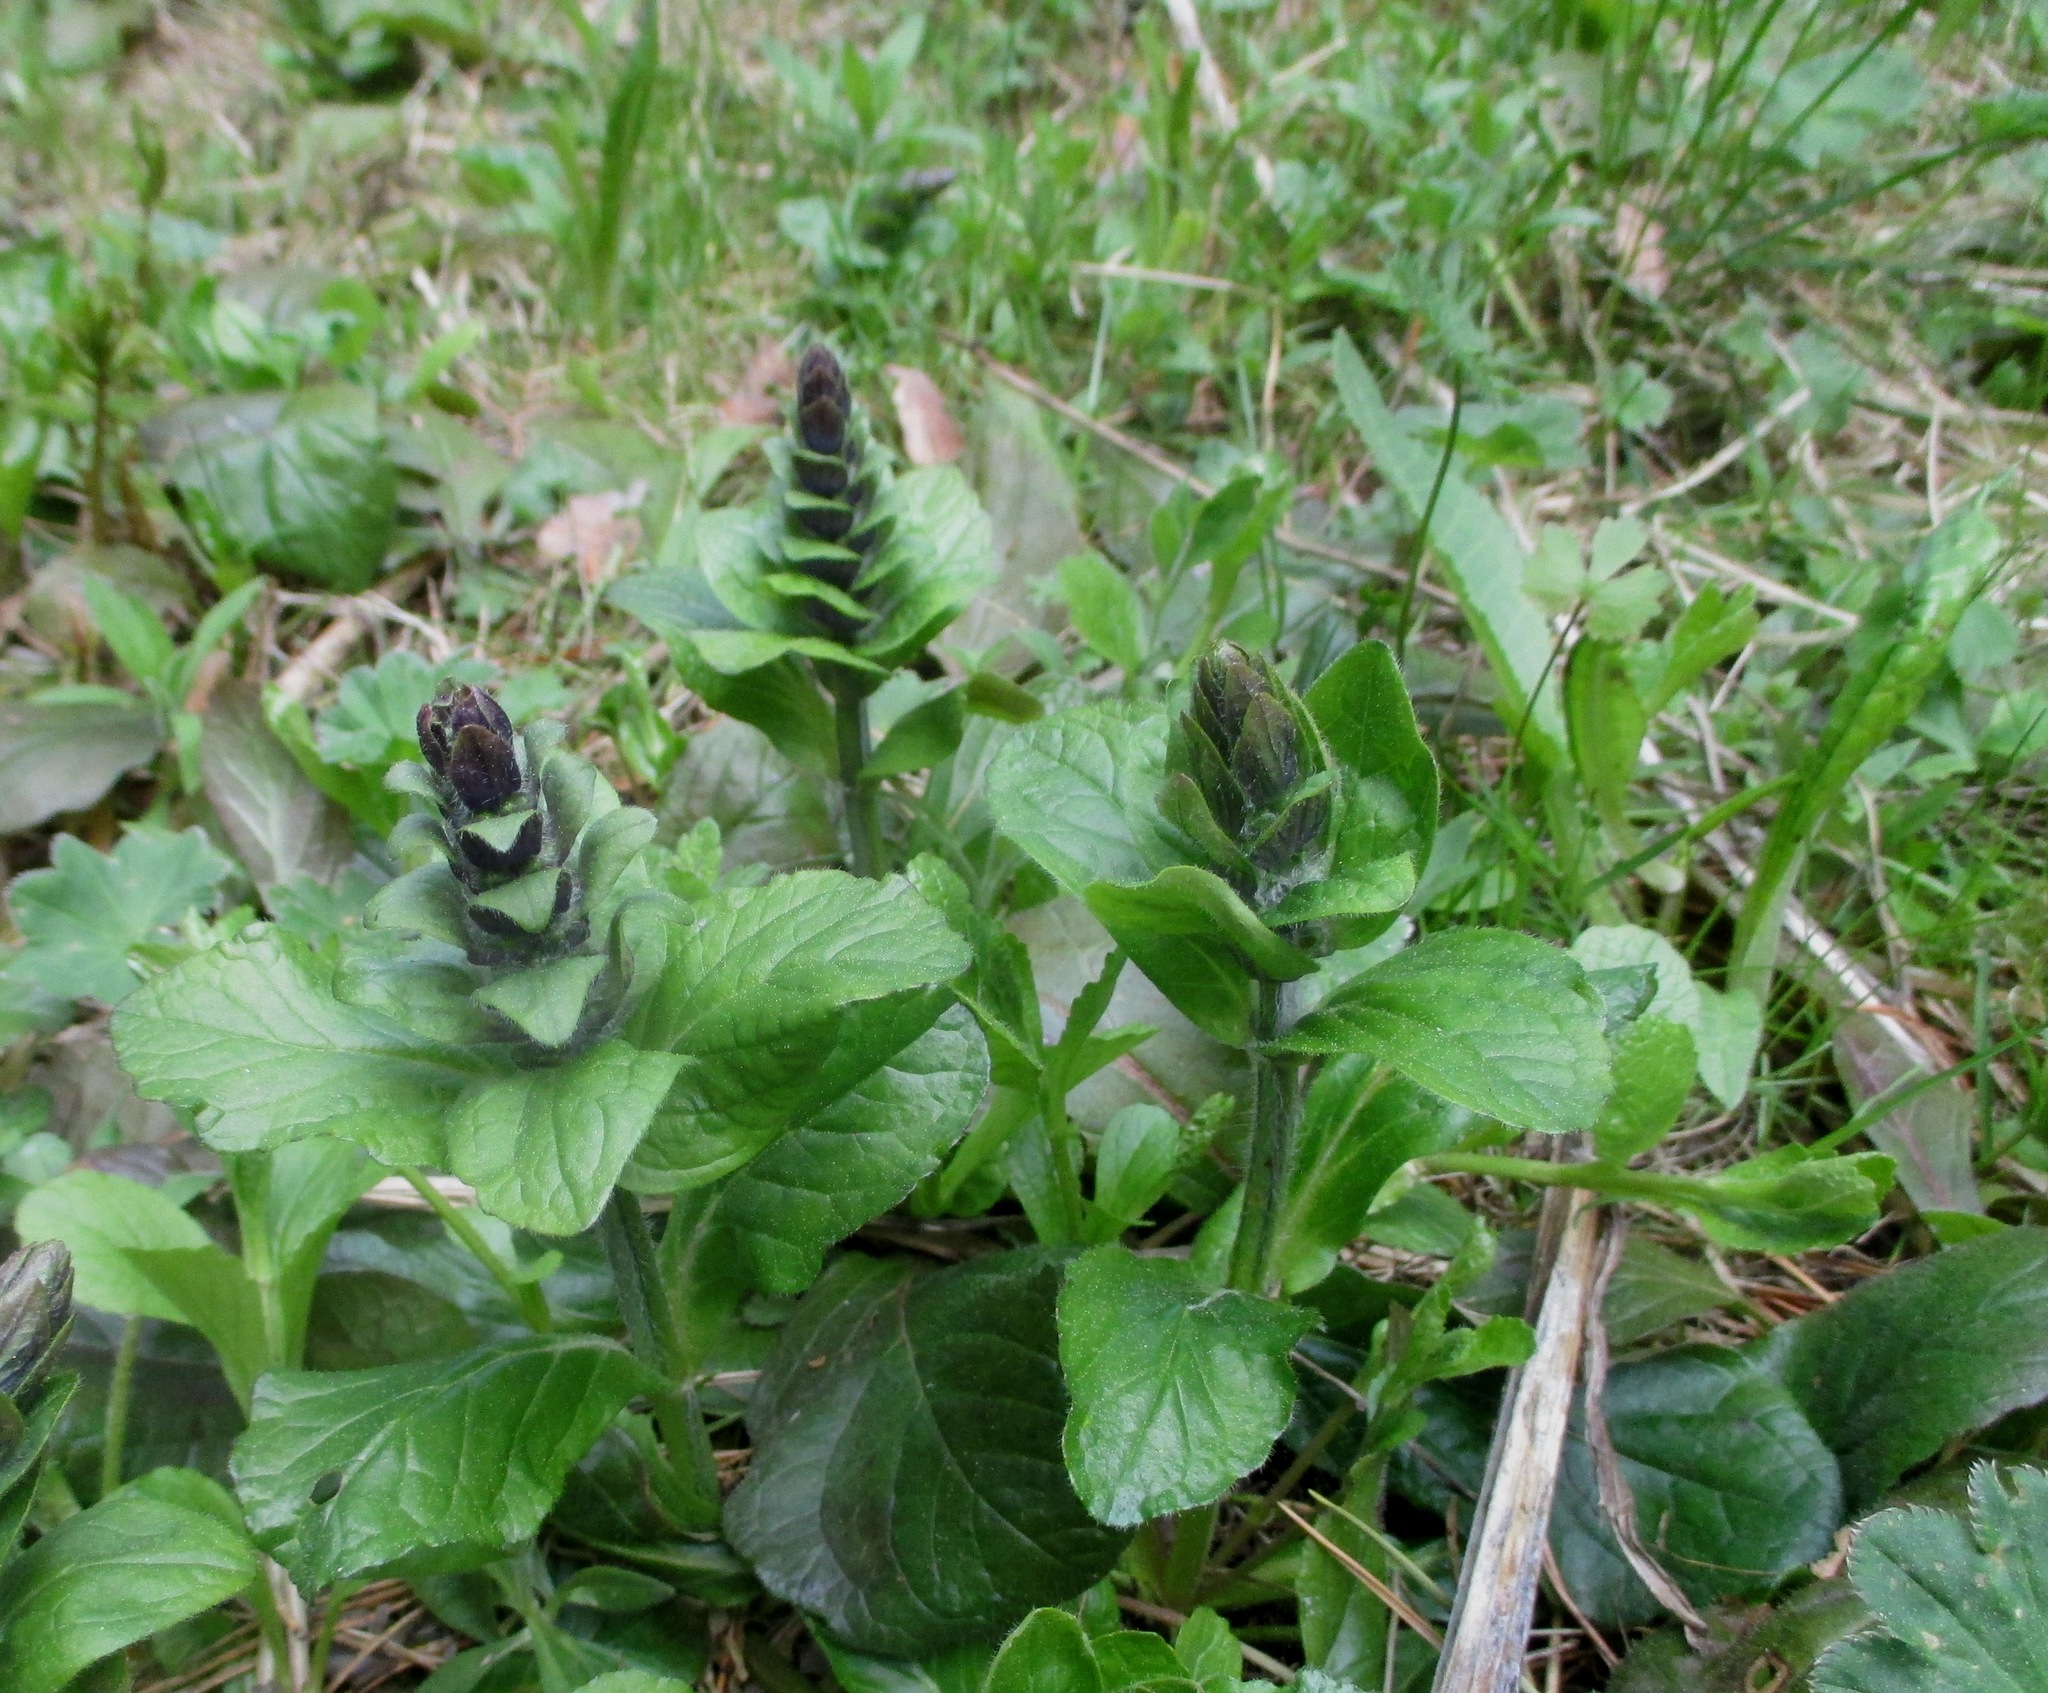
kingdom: Plantae
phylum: Tracheophyta
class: Magnoliopsida
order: Lamiales
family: Lamiaceae
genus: Ajuga
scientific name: Ajuga reptans
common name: Bugle
